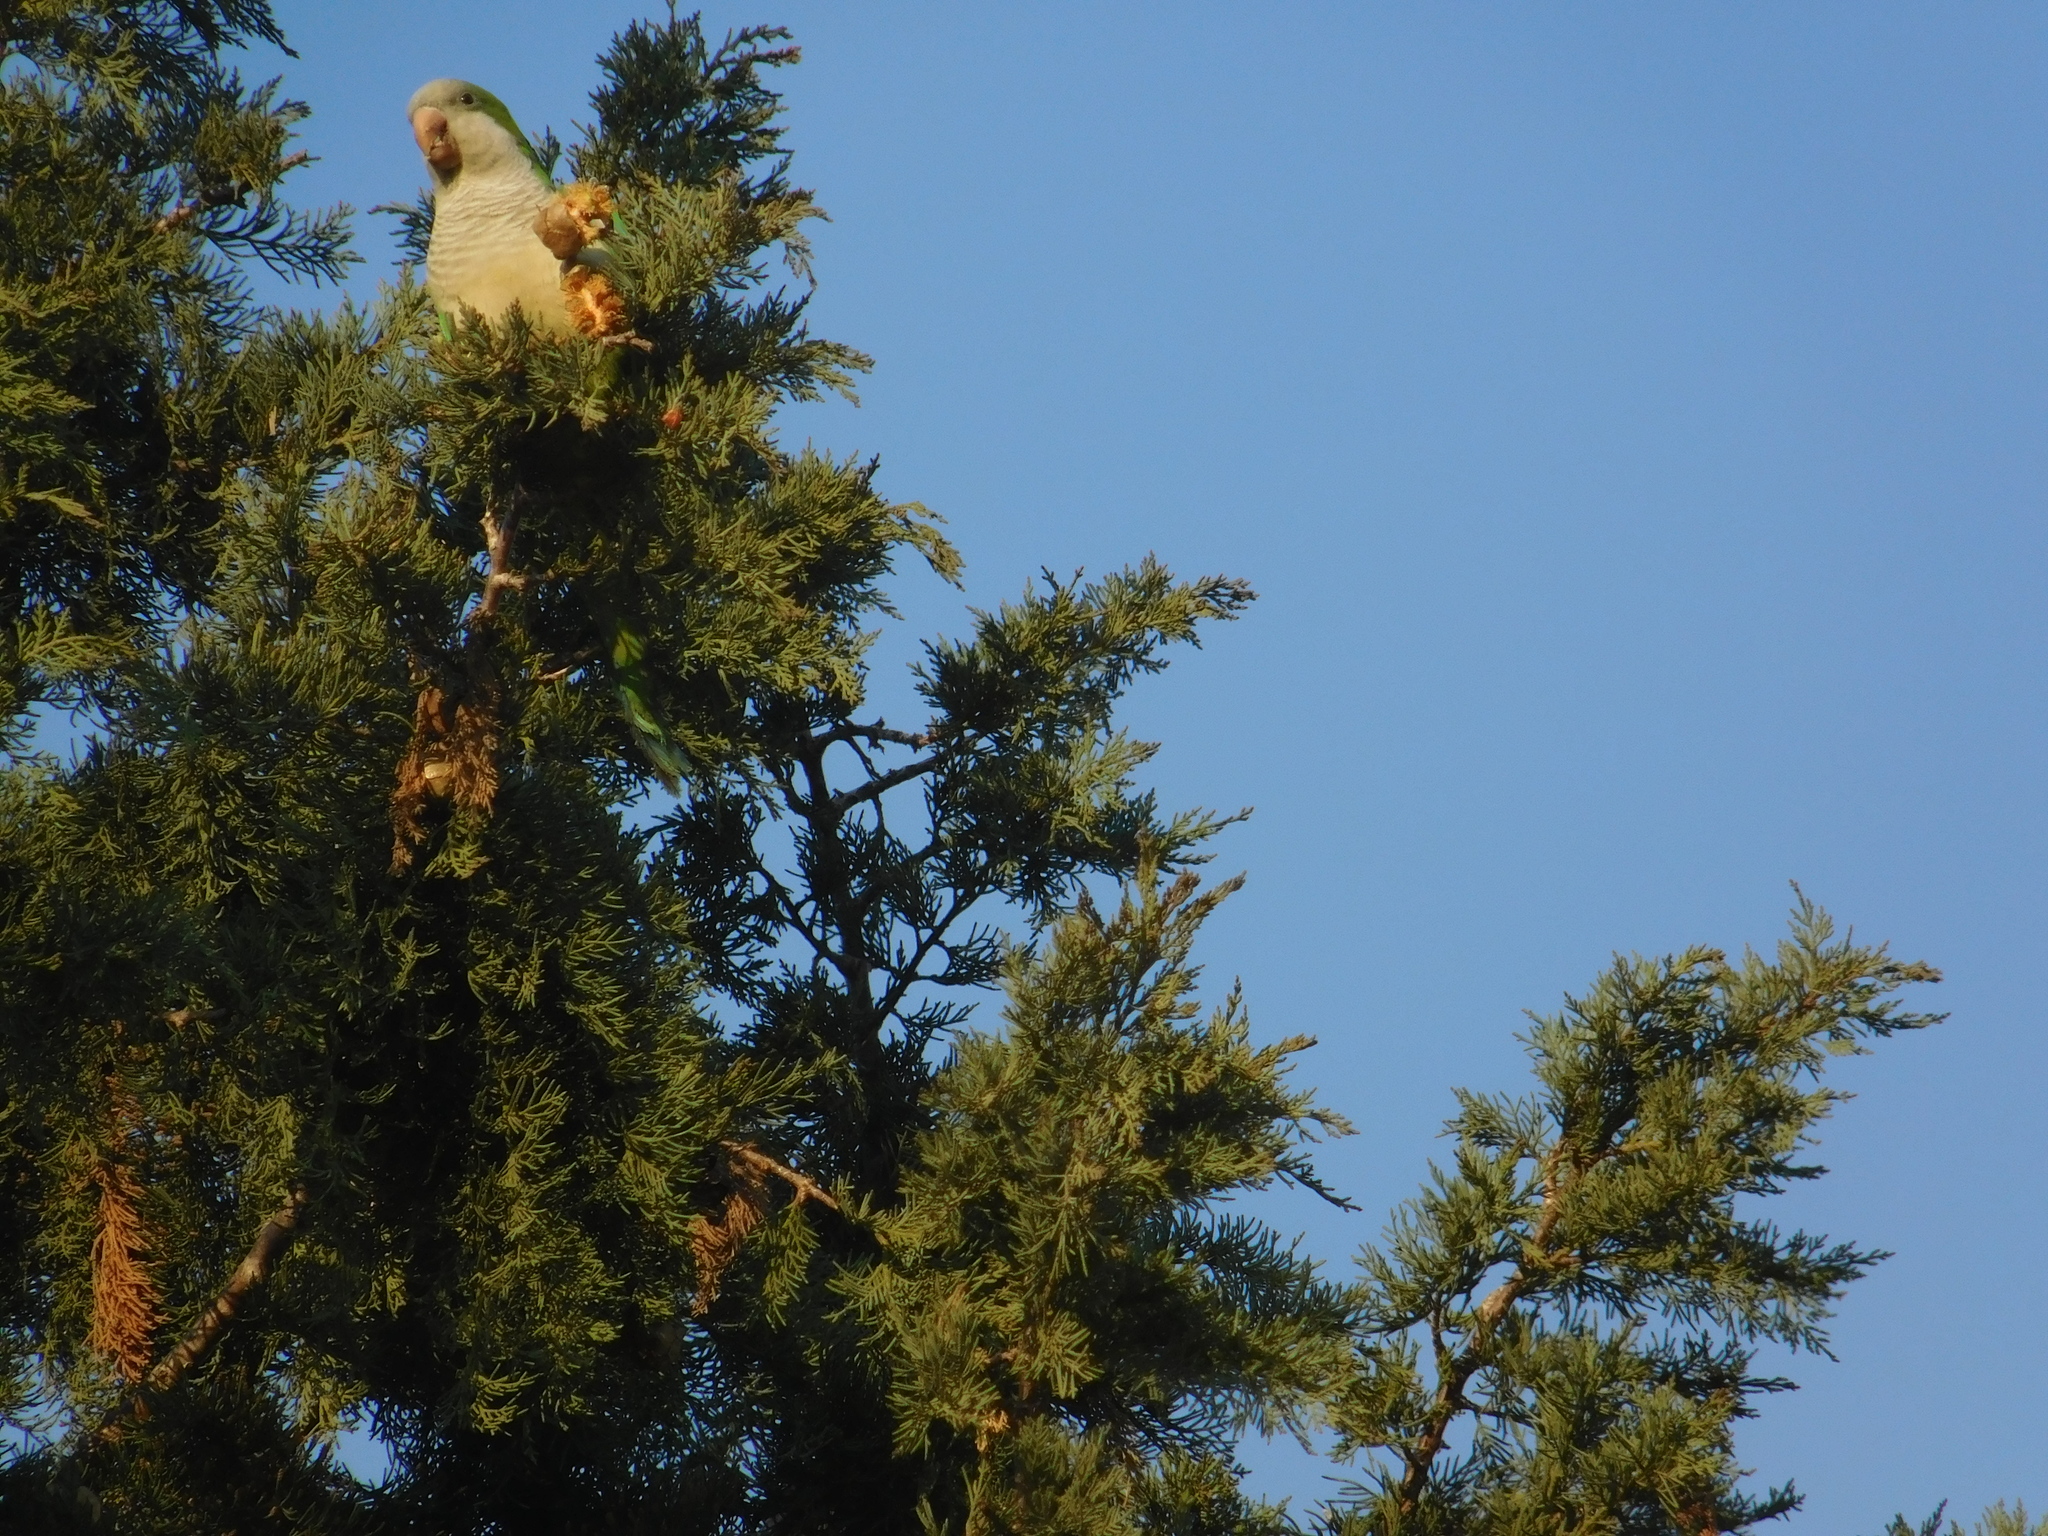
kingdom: Animalia
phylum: Chordata
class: Aves
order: Psittaciformes
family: Psittacidae
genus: Myiopsitta
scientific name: Myiopsitta monachus
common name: Monk parakeet
